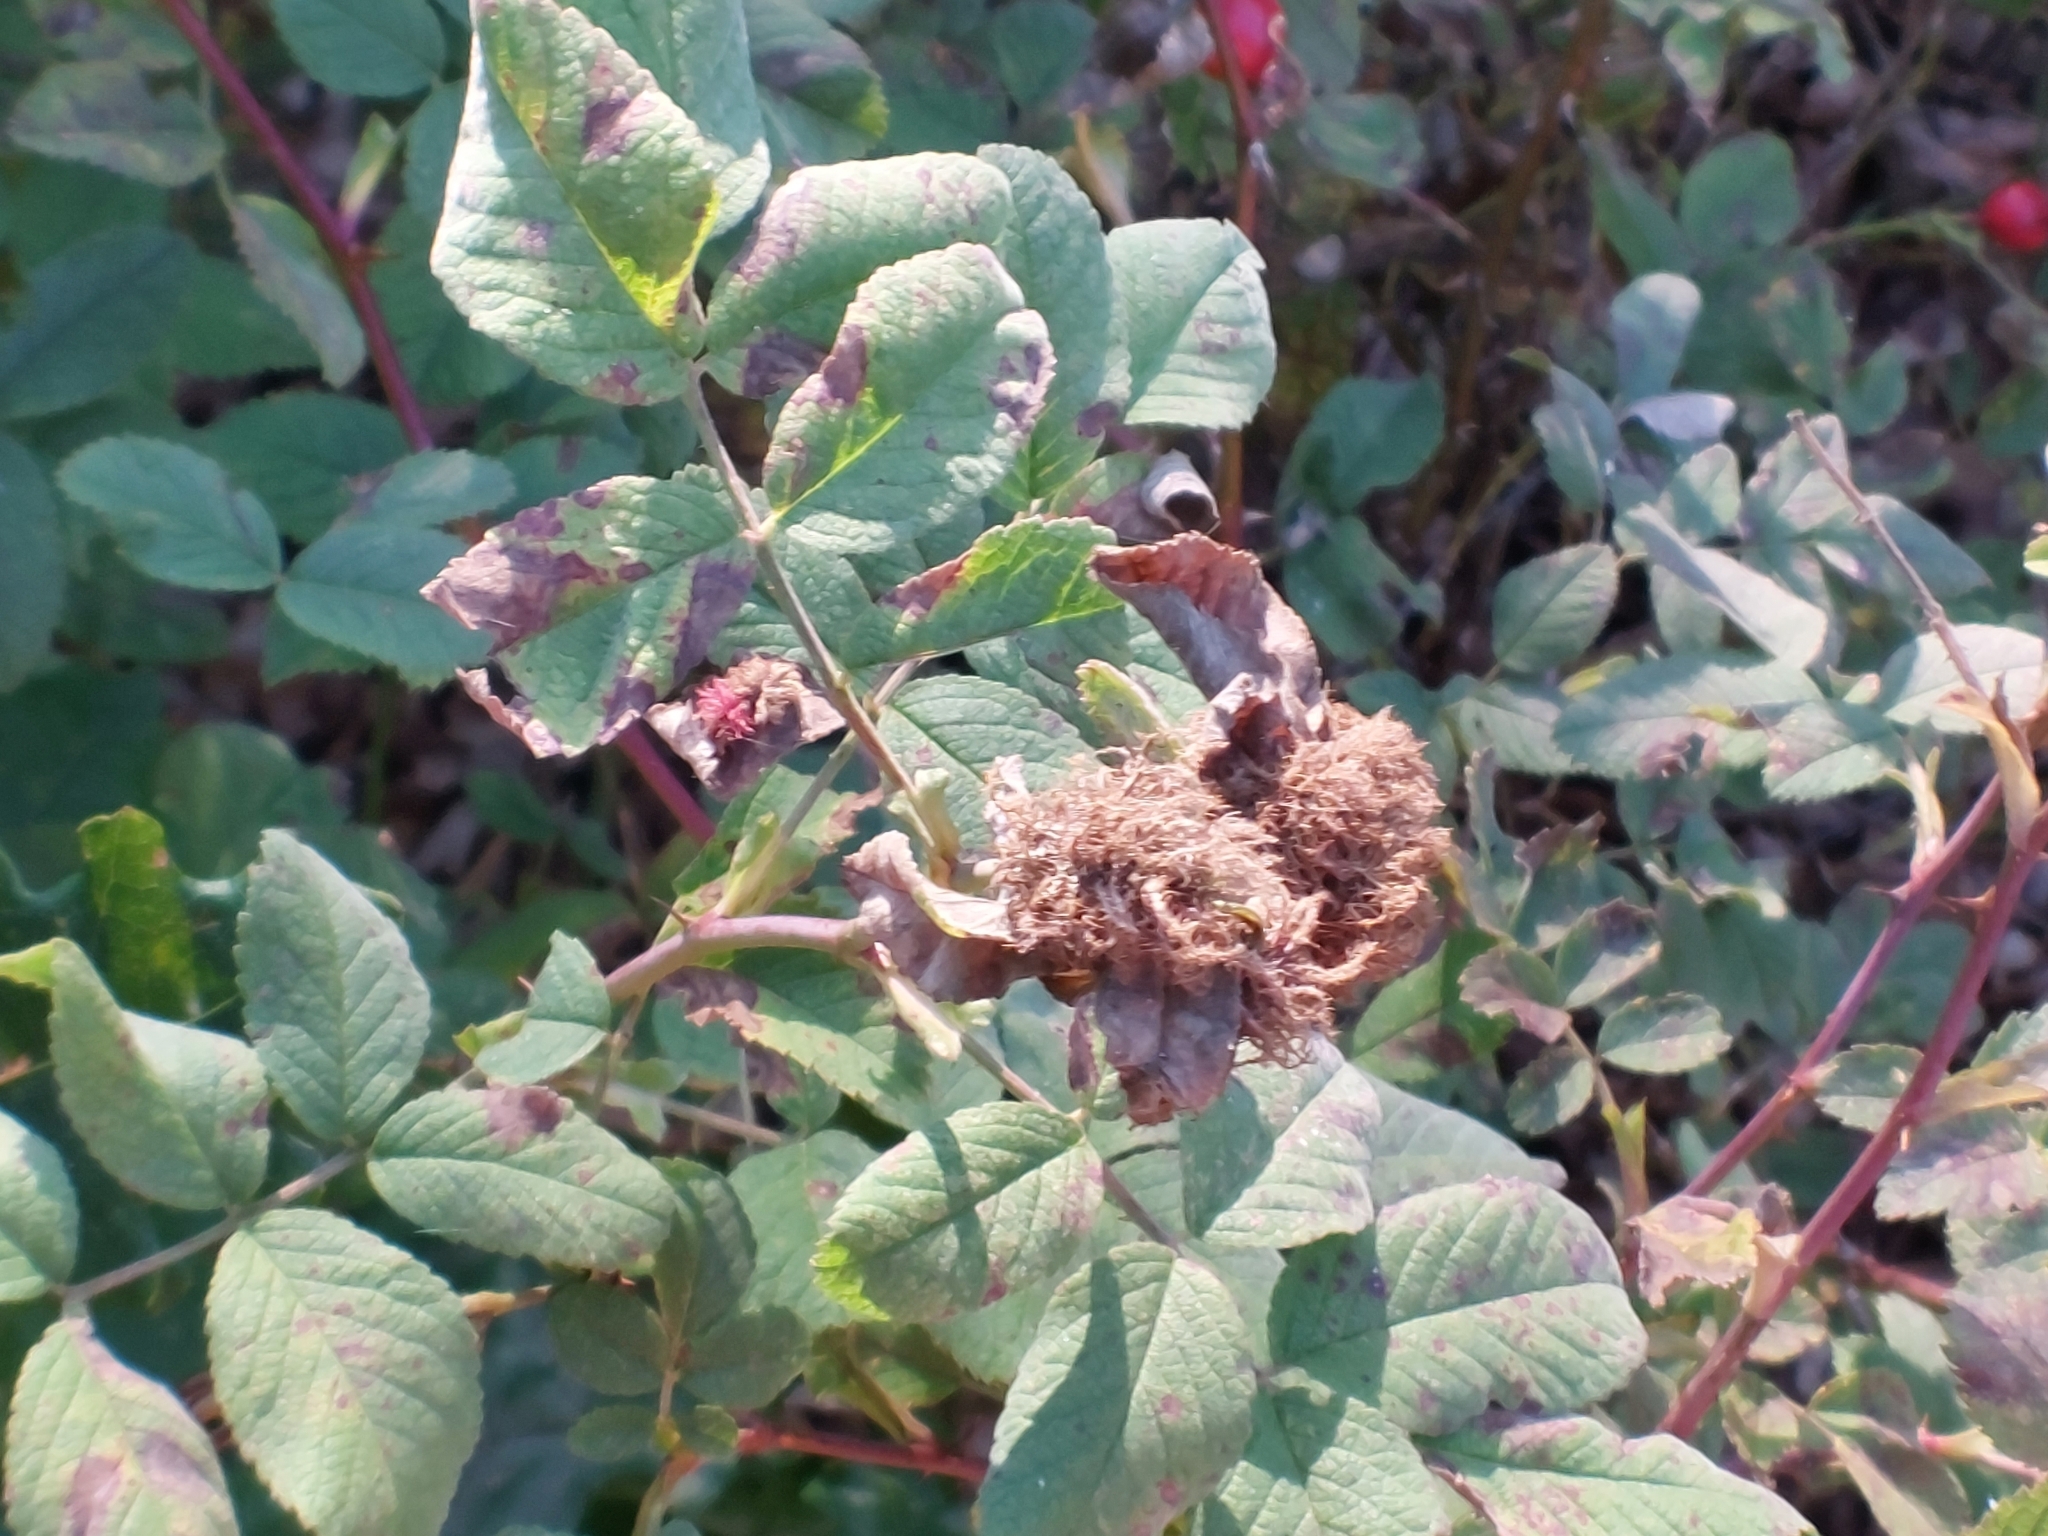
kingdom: Animalia
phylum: Arthropoda
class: Insecta
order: Hymenoptera
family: Cynipidae
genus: Diplolepis
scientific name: Diplolepis rosae
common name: Bedeguar gall
